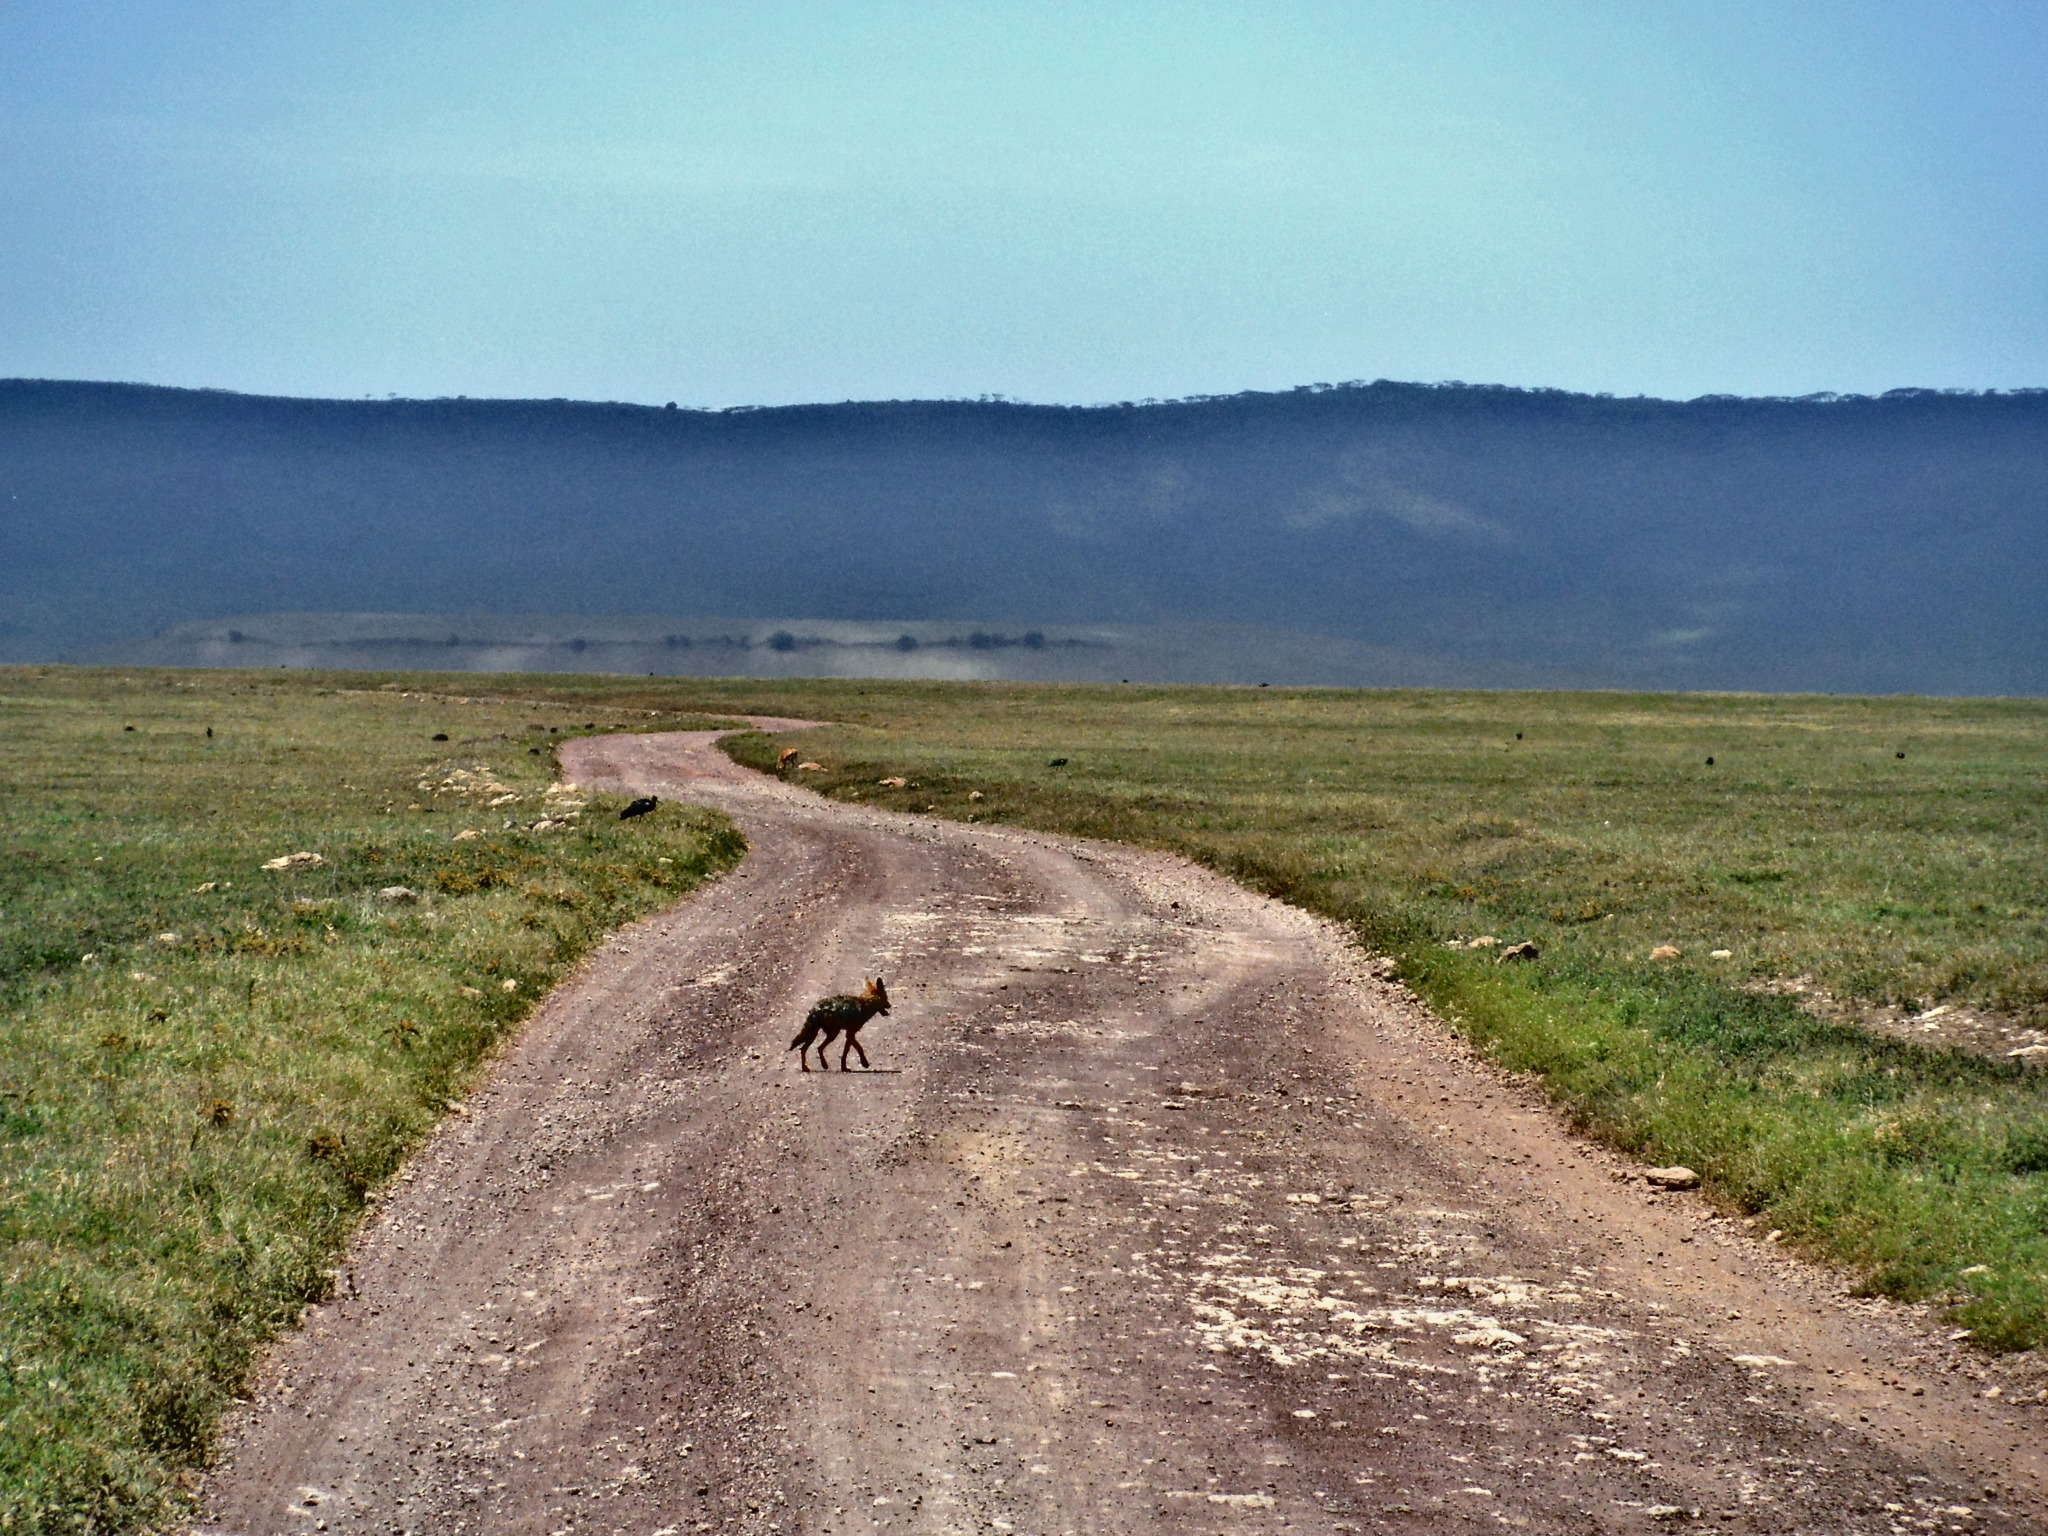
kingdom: Animalia
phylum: Chordata
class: Mammalia
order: Carnivora
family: Canidae
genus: Lupulella
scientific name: Lupulella
